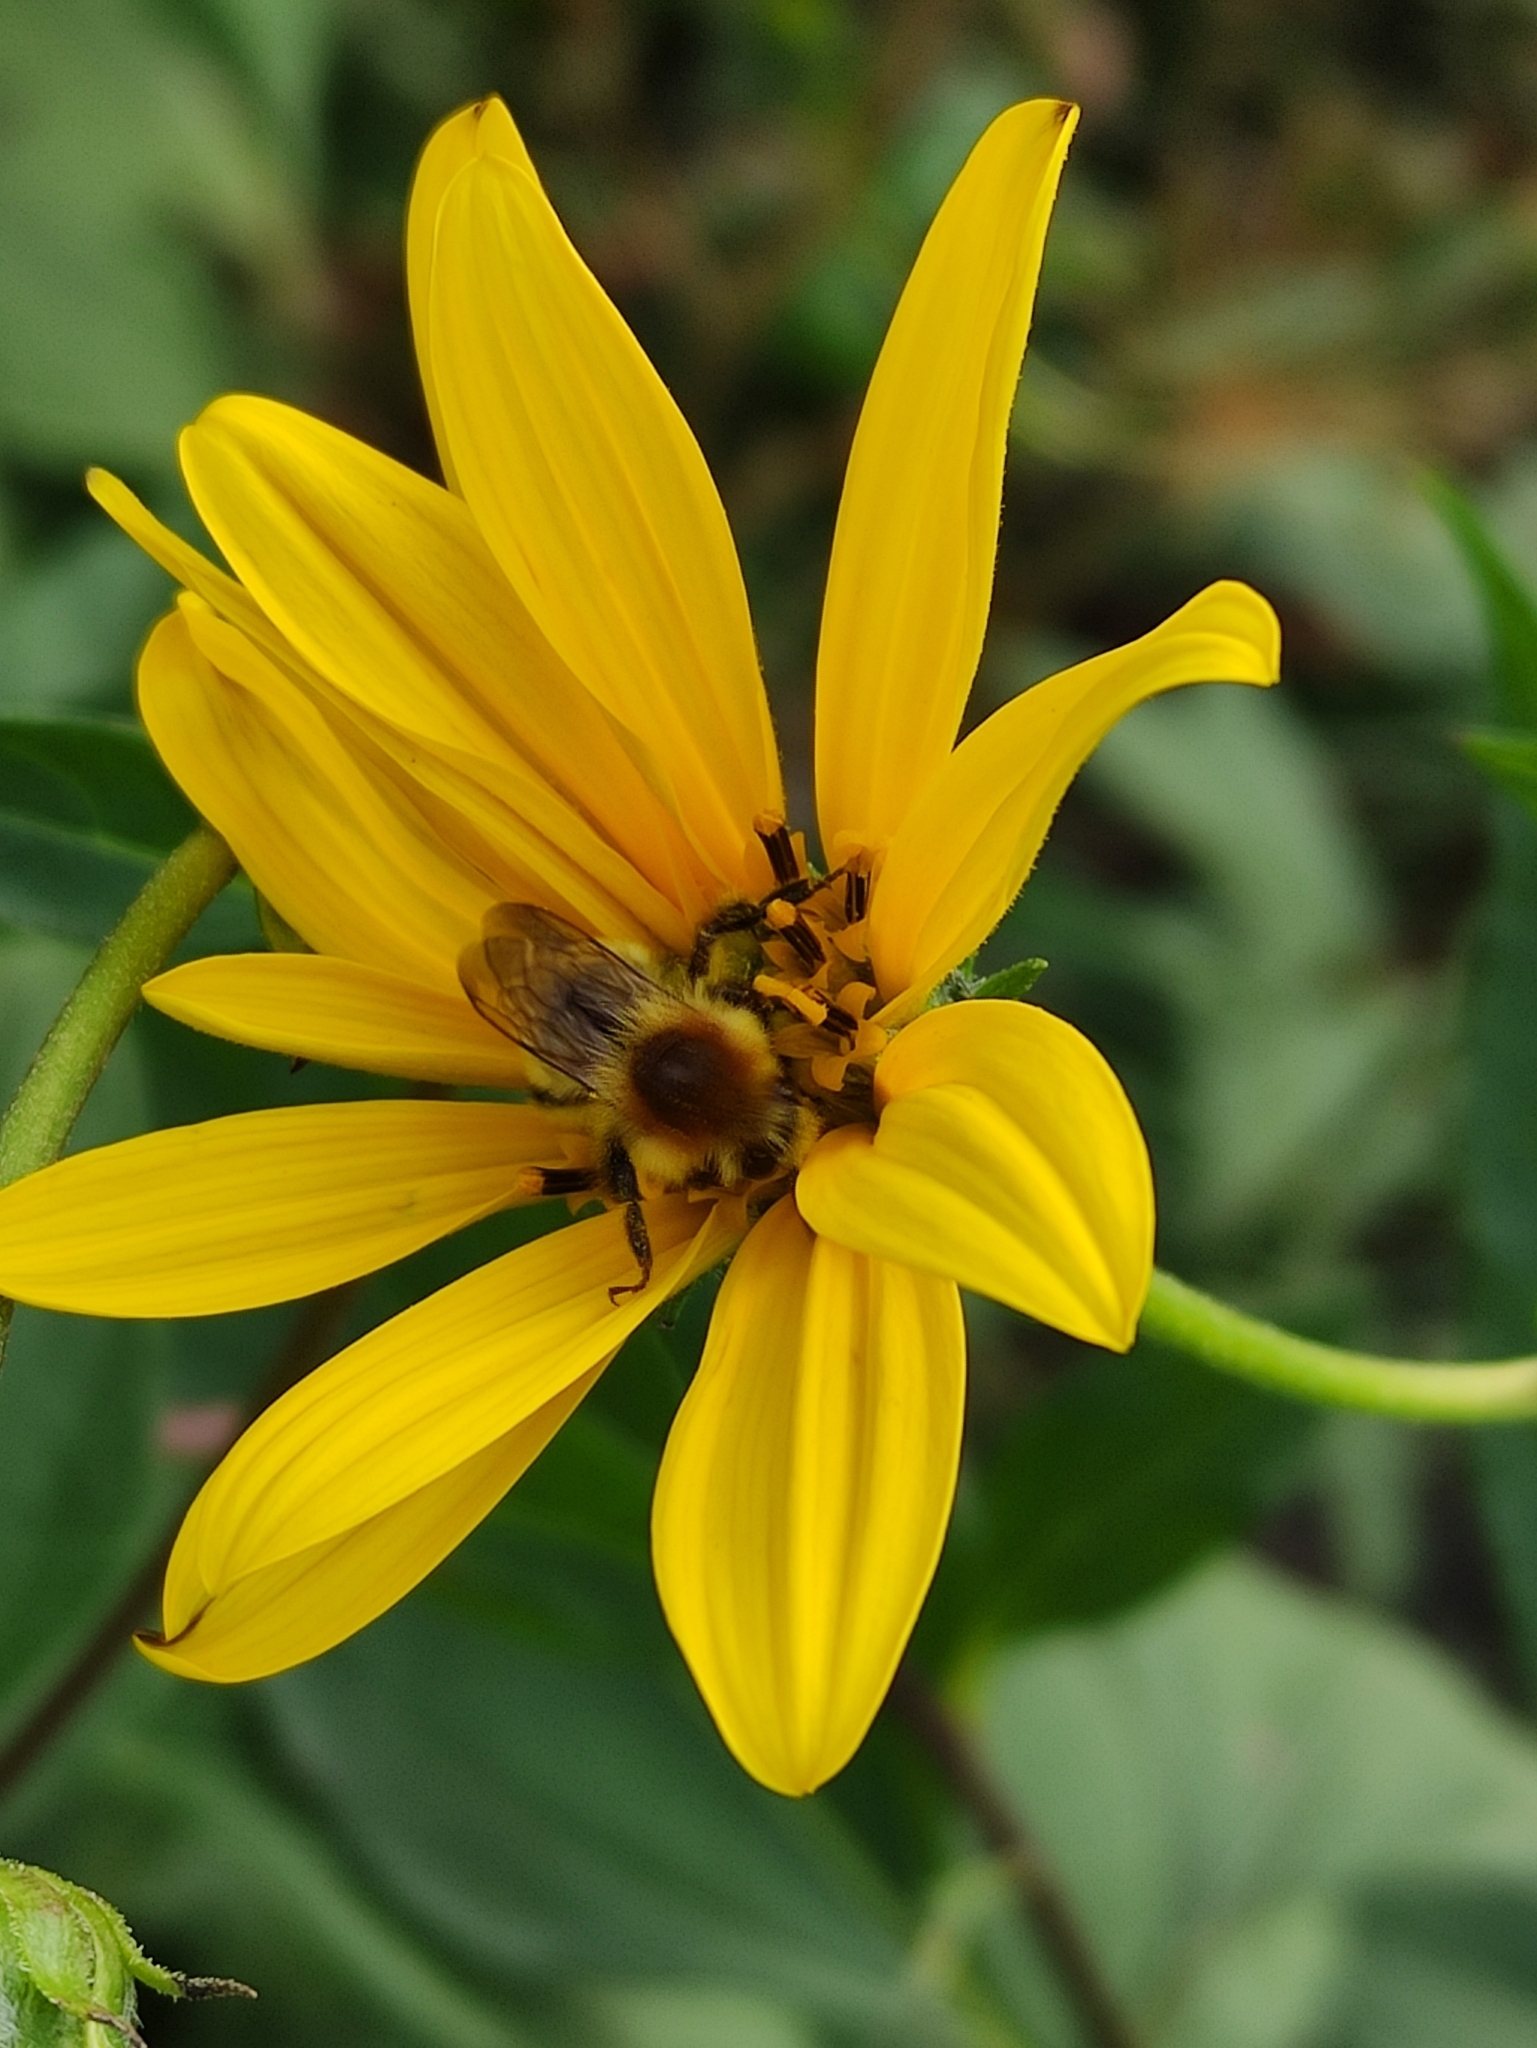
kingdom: Animalia
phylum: Arthropoda
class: Insecta
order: Hymenoptera
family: Apidae
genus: Bombus
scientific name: Bombus muscorum
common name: Moss carder-bee
